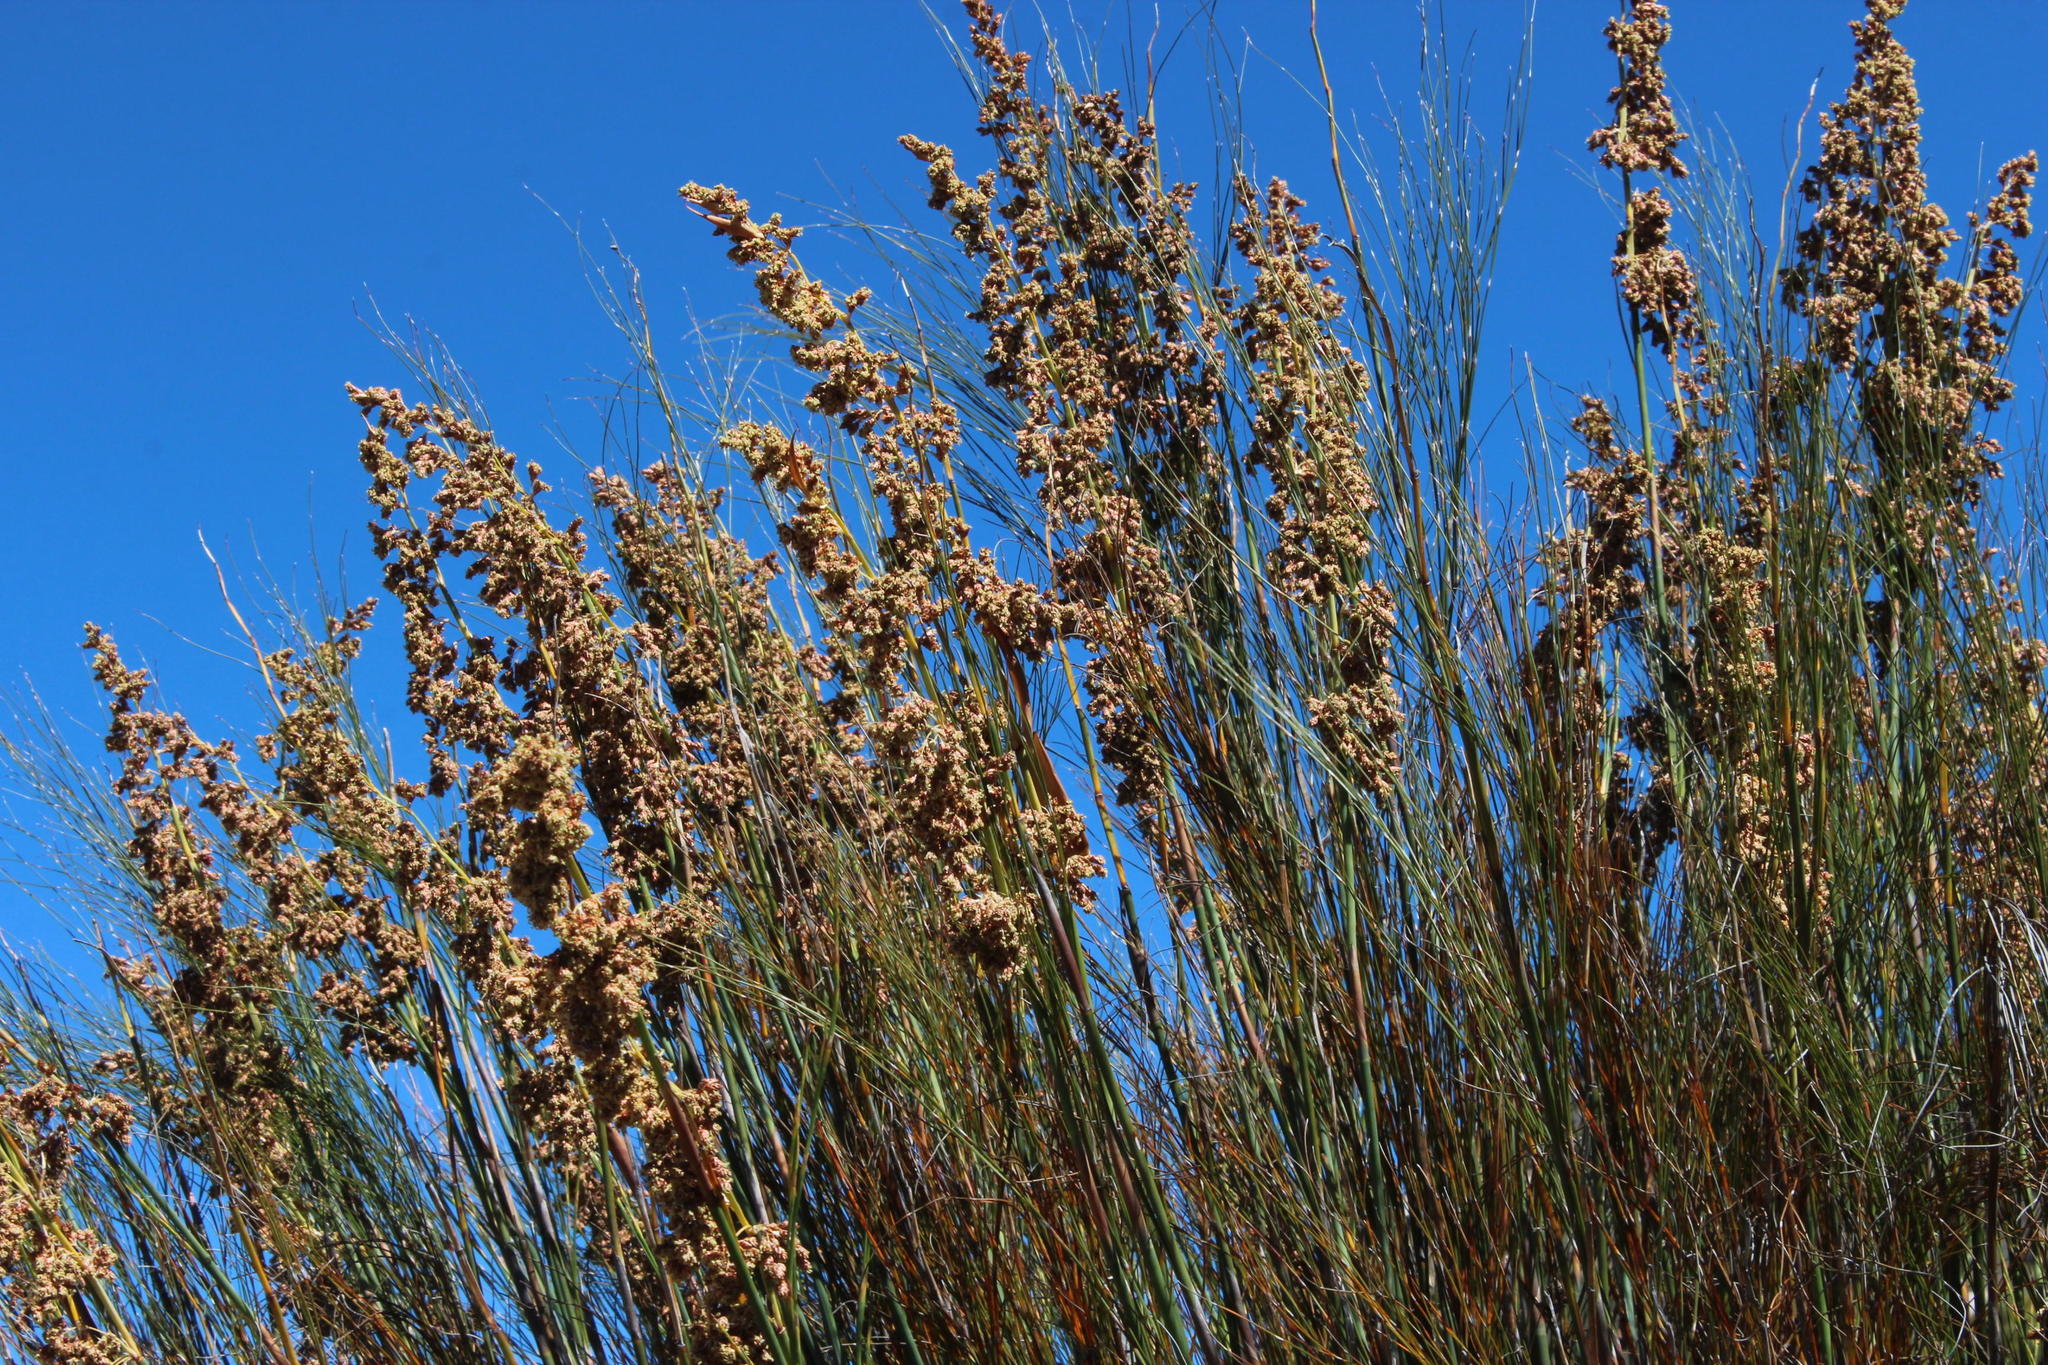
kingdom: Plantae
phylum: Tracheophyta
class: Liliopsida
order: Poales
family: Restionaceae
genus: Cannomois
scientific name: Cannomois robusta
